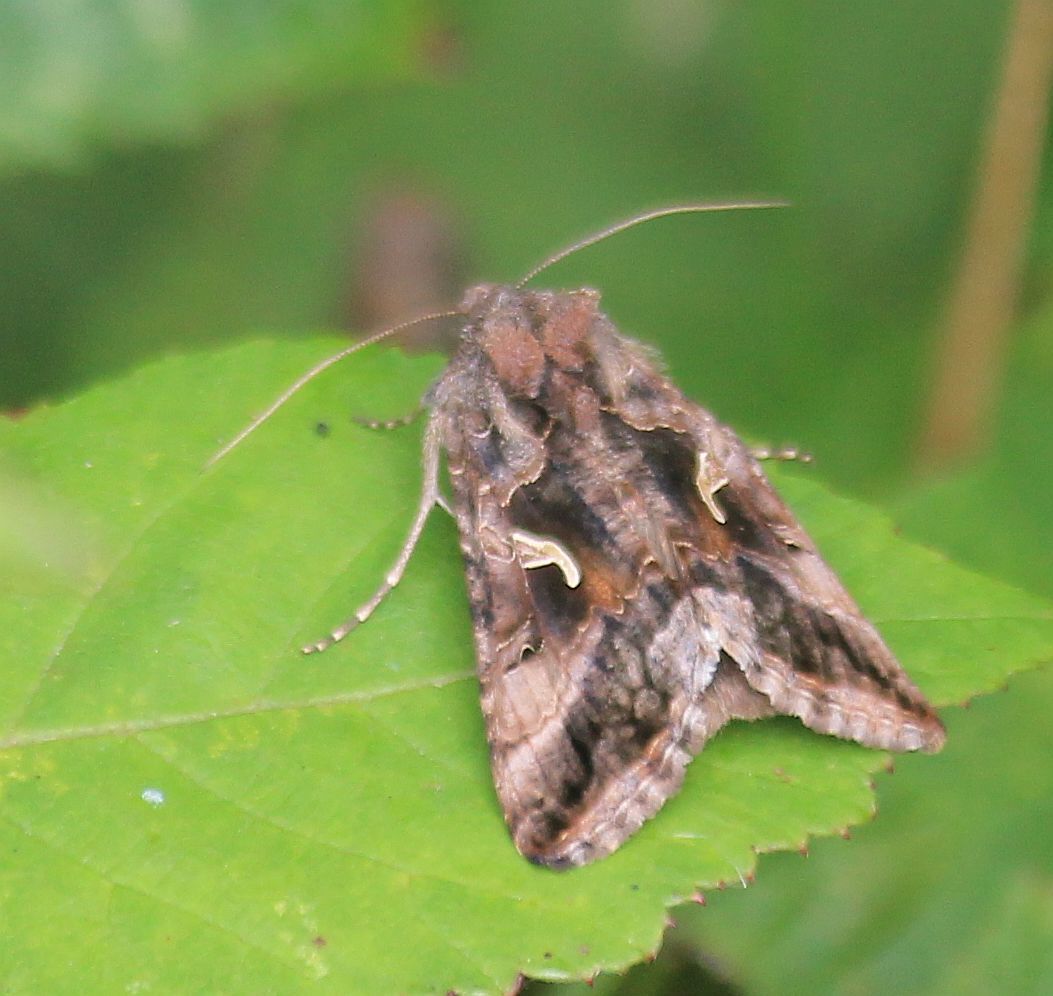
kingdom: Animalia
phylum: Arthropoda
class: Insecta
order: Lepidoptera
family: Noctuidae
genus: Autographa
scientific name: Autographa gamma
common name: Silver y
